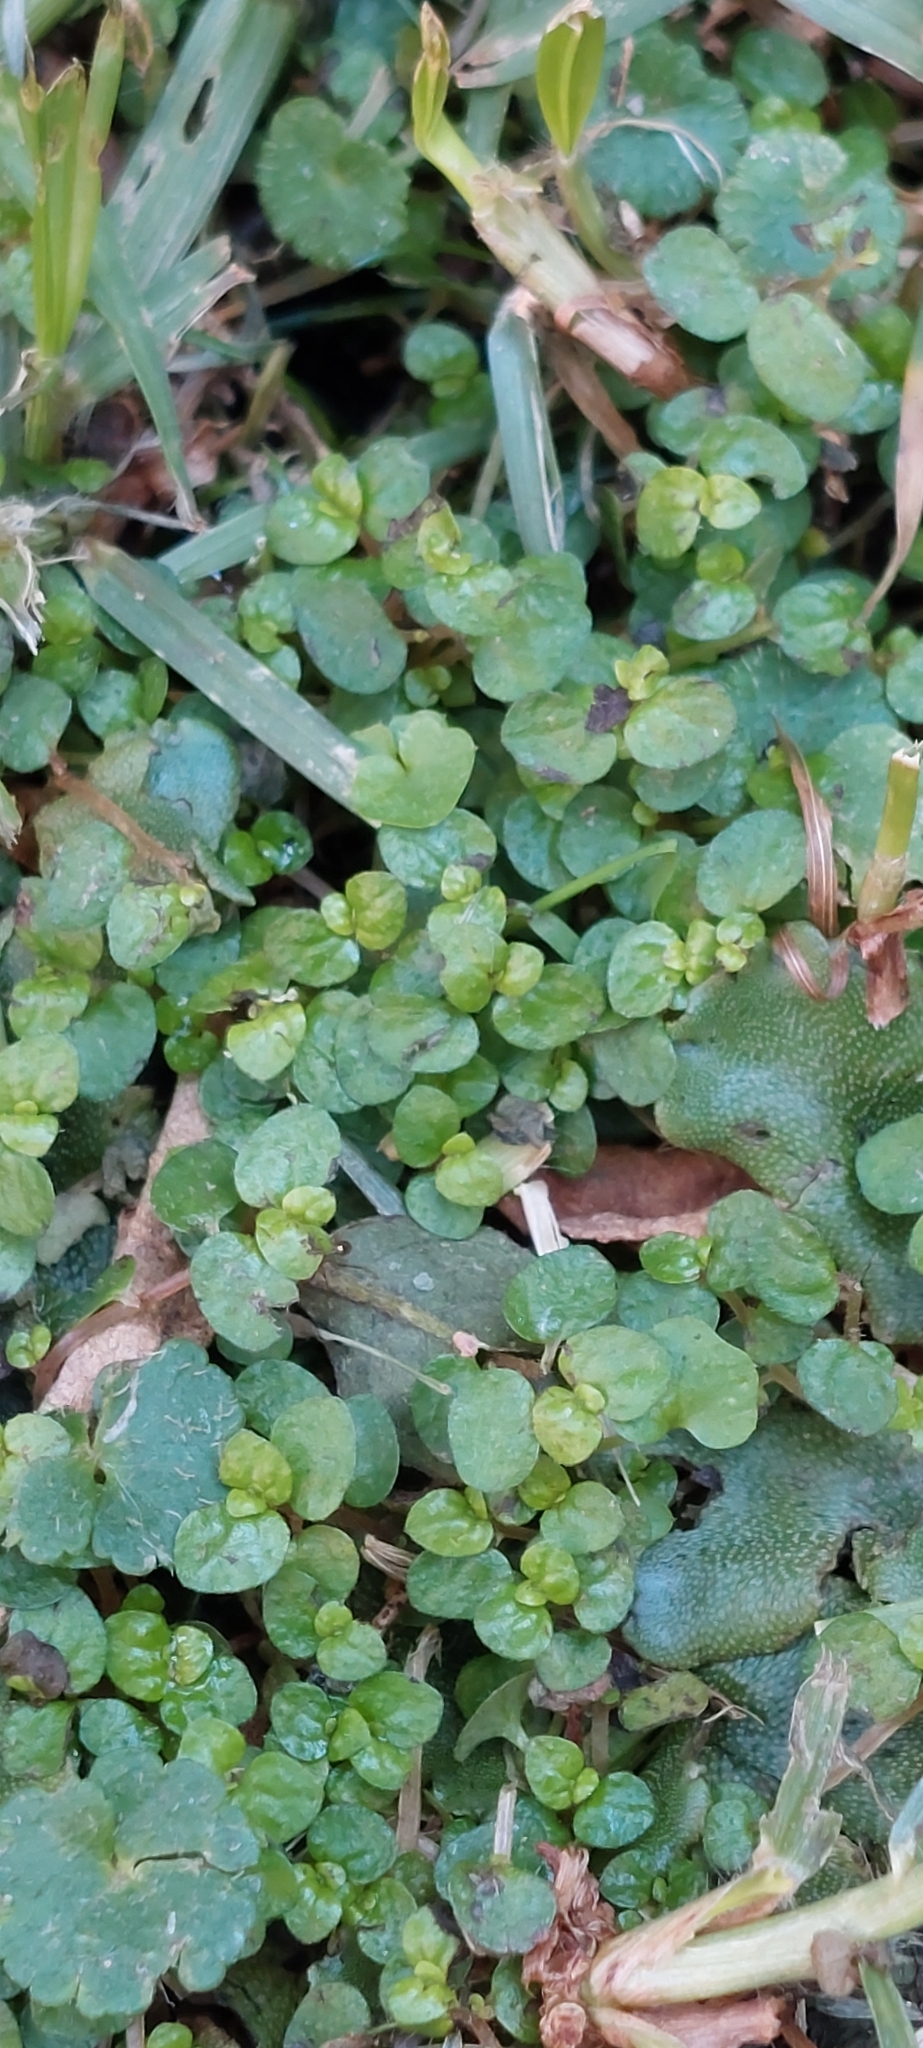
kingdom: Plantae
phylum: Tracheophyta
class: Magnoliopsida
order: Rosales
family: Urticaceae
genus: Soleirolia
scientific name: Soleirolia soleirolii
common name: Mind-your-own-business
